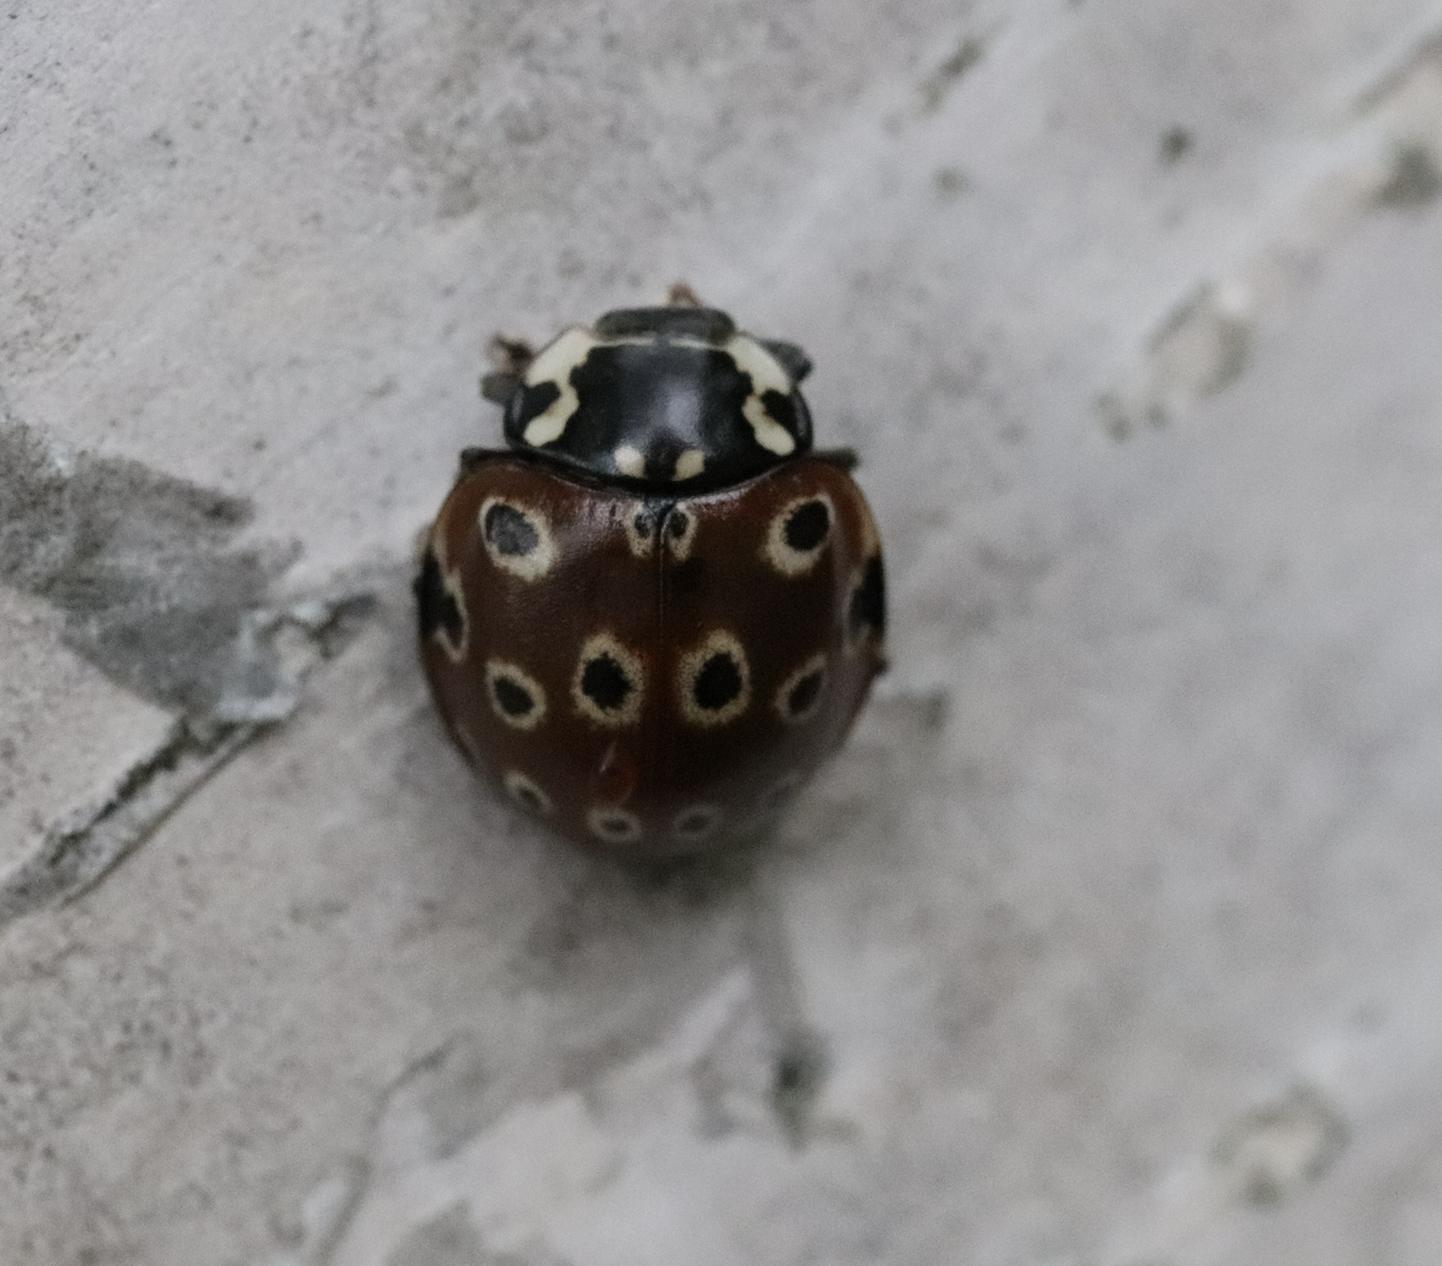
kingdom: Animalia
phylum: Arthropoda
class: Insecta
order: Coleoptera
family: Coccinellidae
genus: Anatis
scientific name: Anatis mali
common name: Eye-spotted lady beetle
